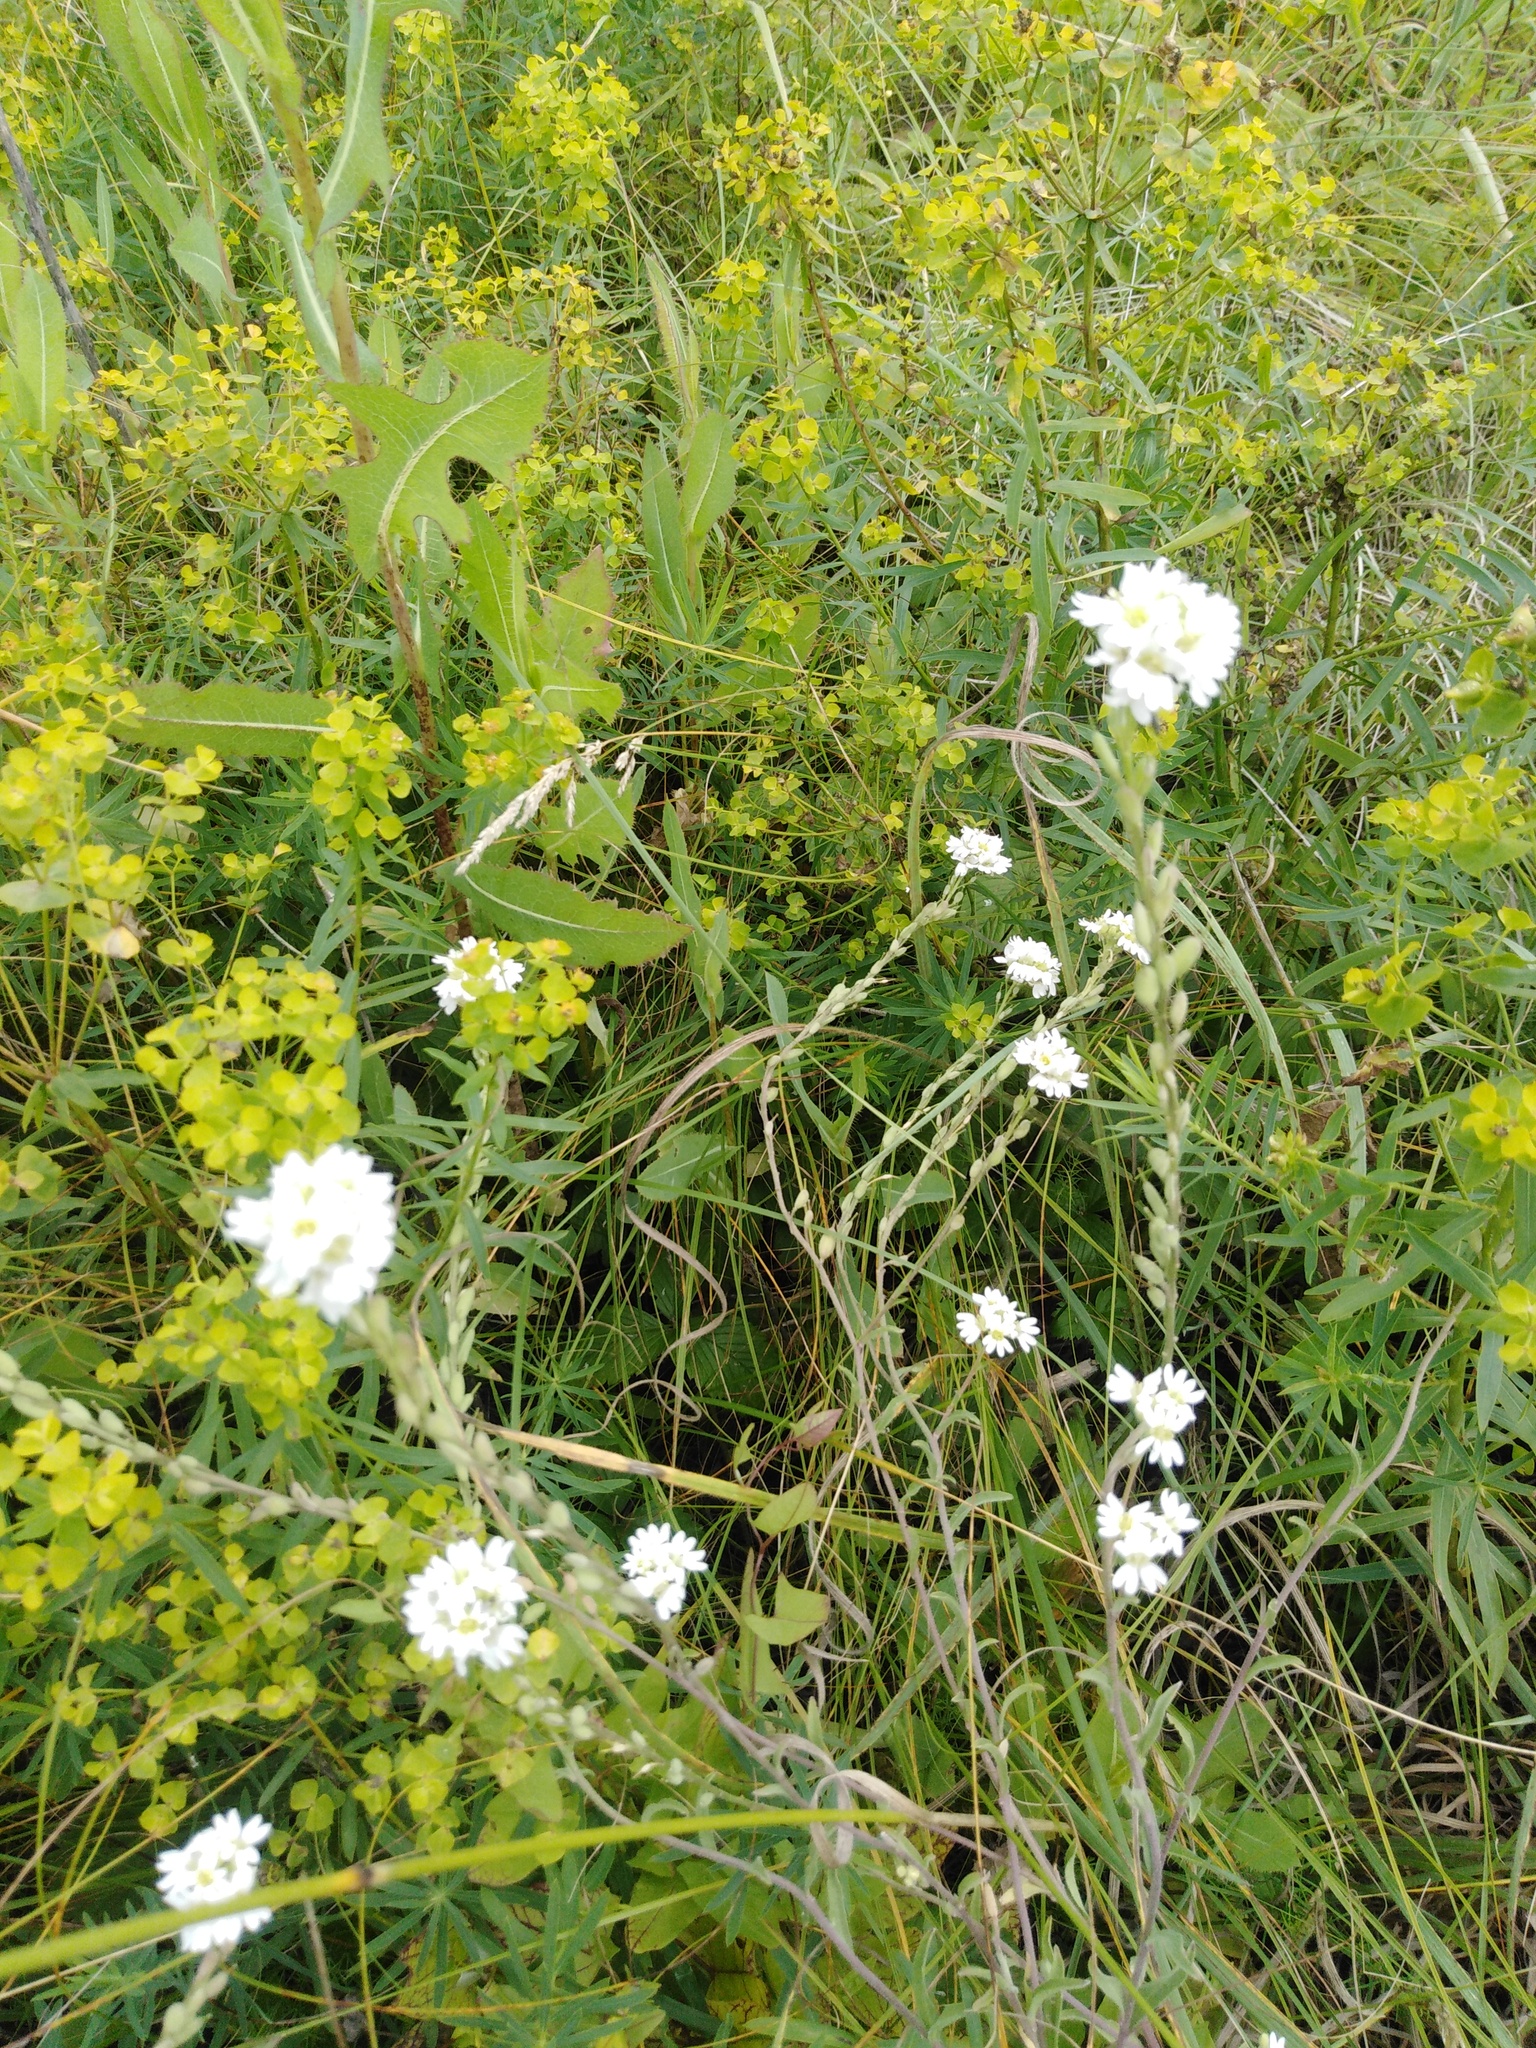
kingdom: Plantae
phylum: Tracheophyta
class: Magnoliopsida
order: Brassicales
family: Brassicaceae
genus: Berteroa
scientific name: Berteroa incana
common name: Hoary alison
